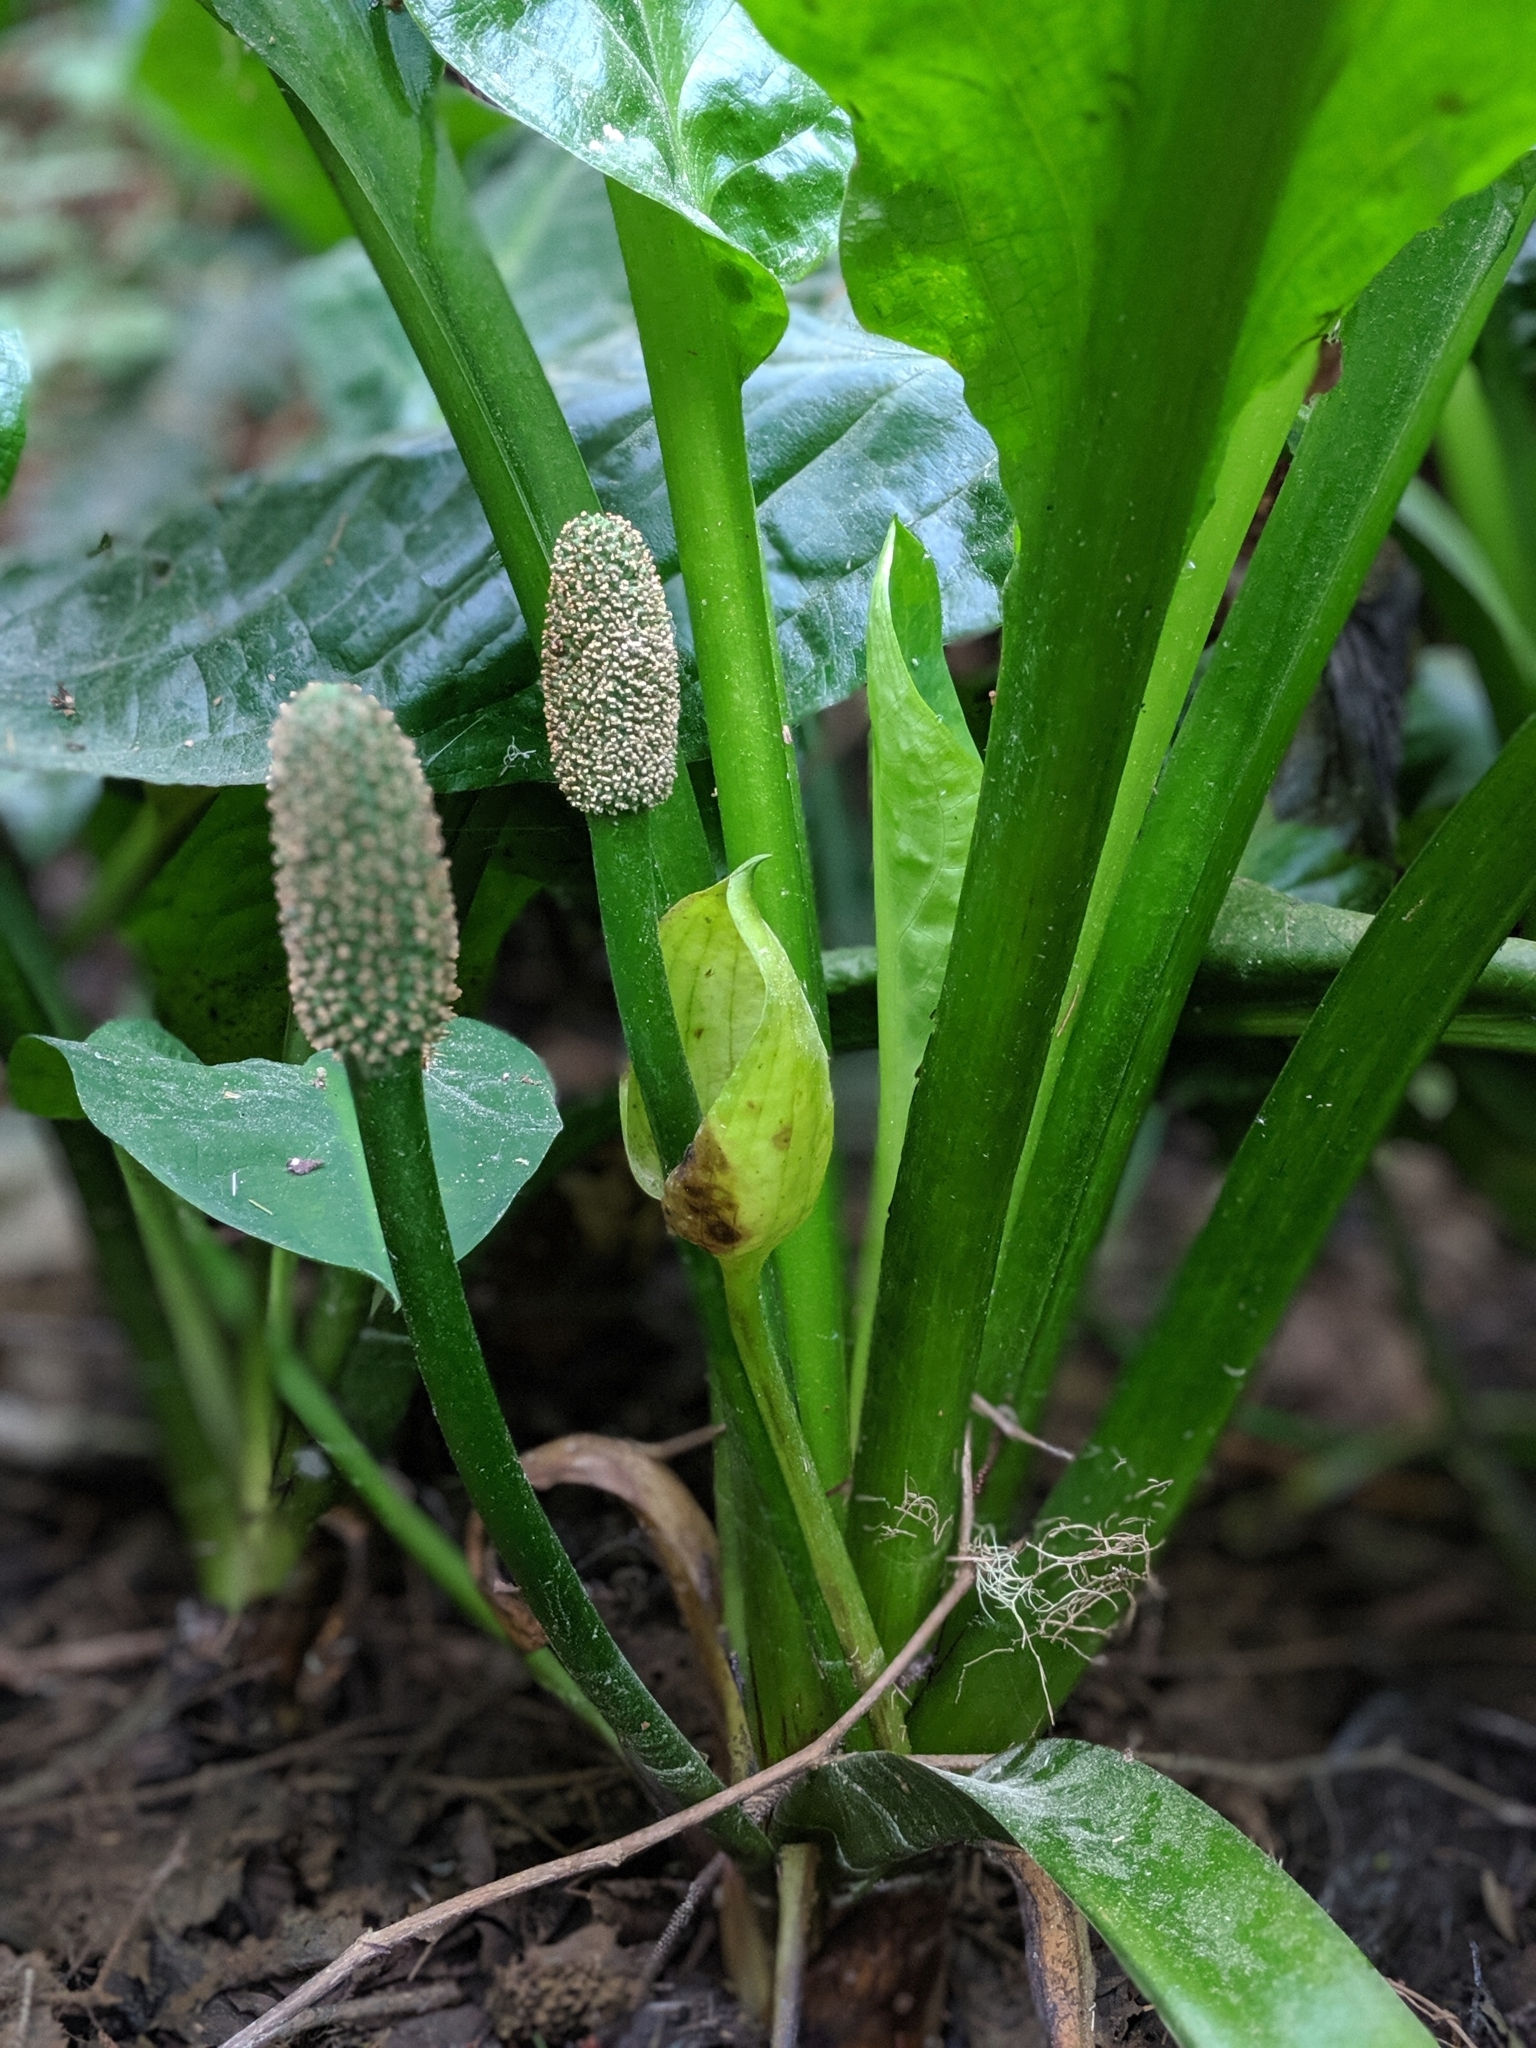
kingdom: Plantae
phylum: Tracheophyta
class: Liliopsida
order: Alismatales
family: Araceae
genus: Lysichiton
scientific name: Lysichiton americanus
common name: American skunk cabbage
